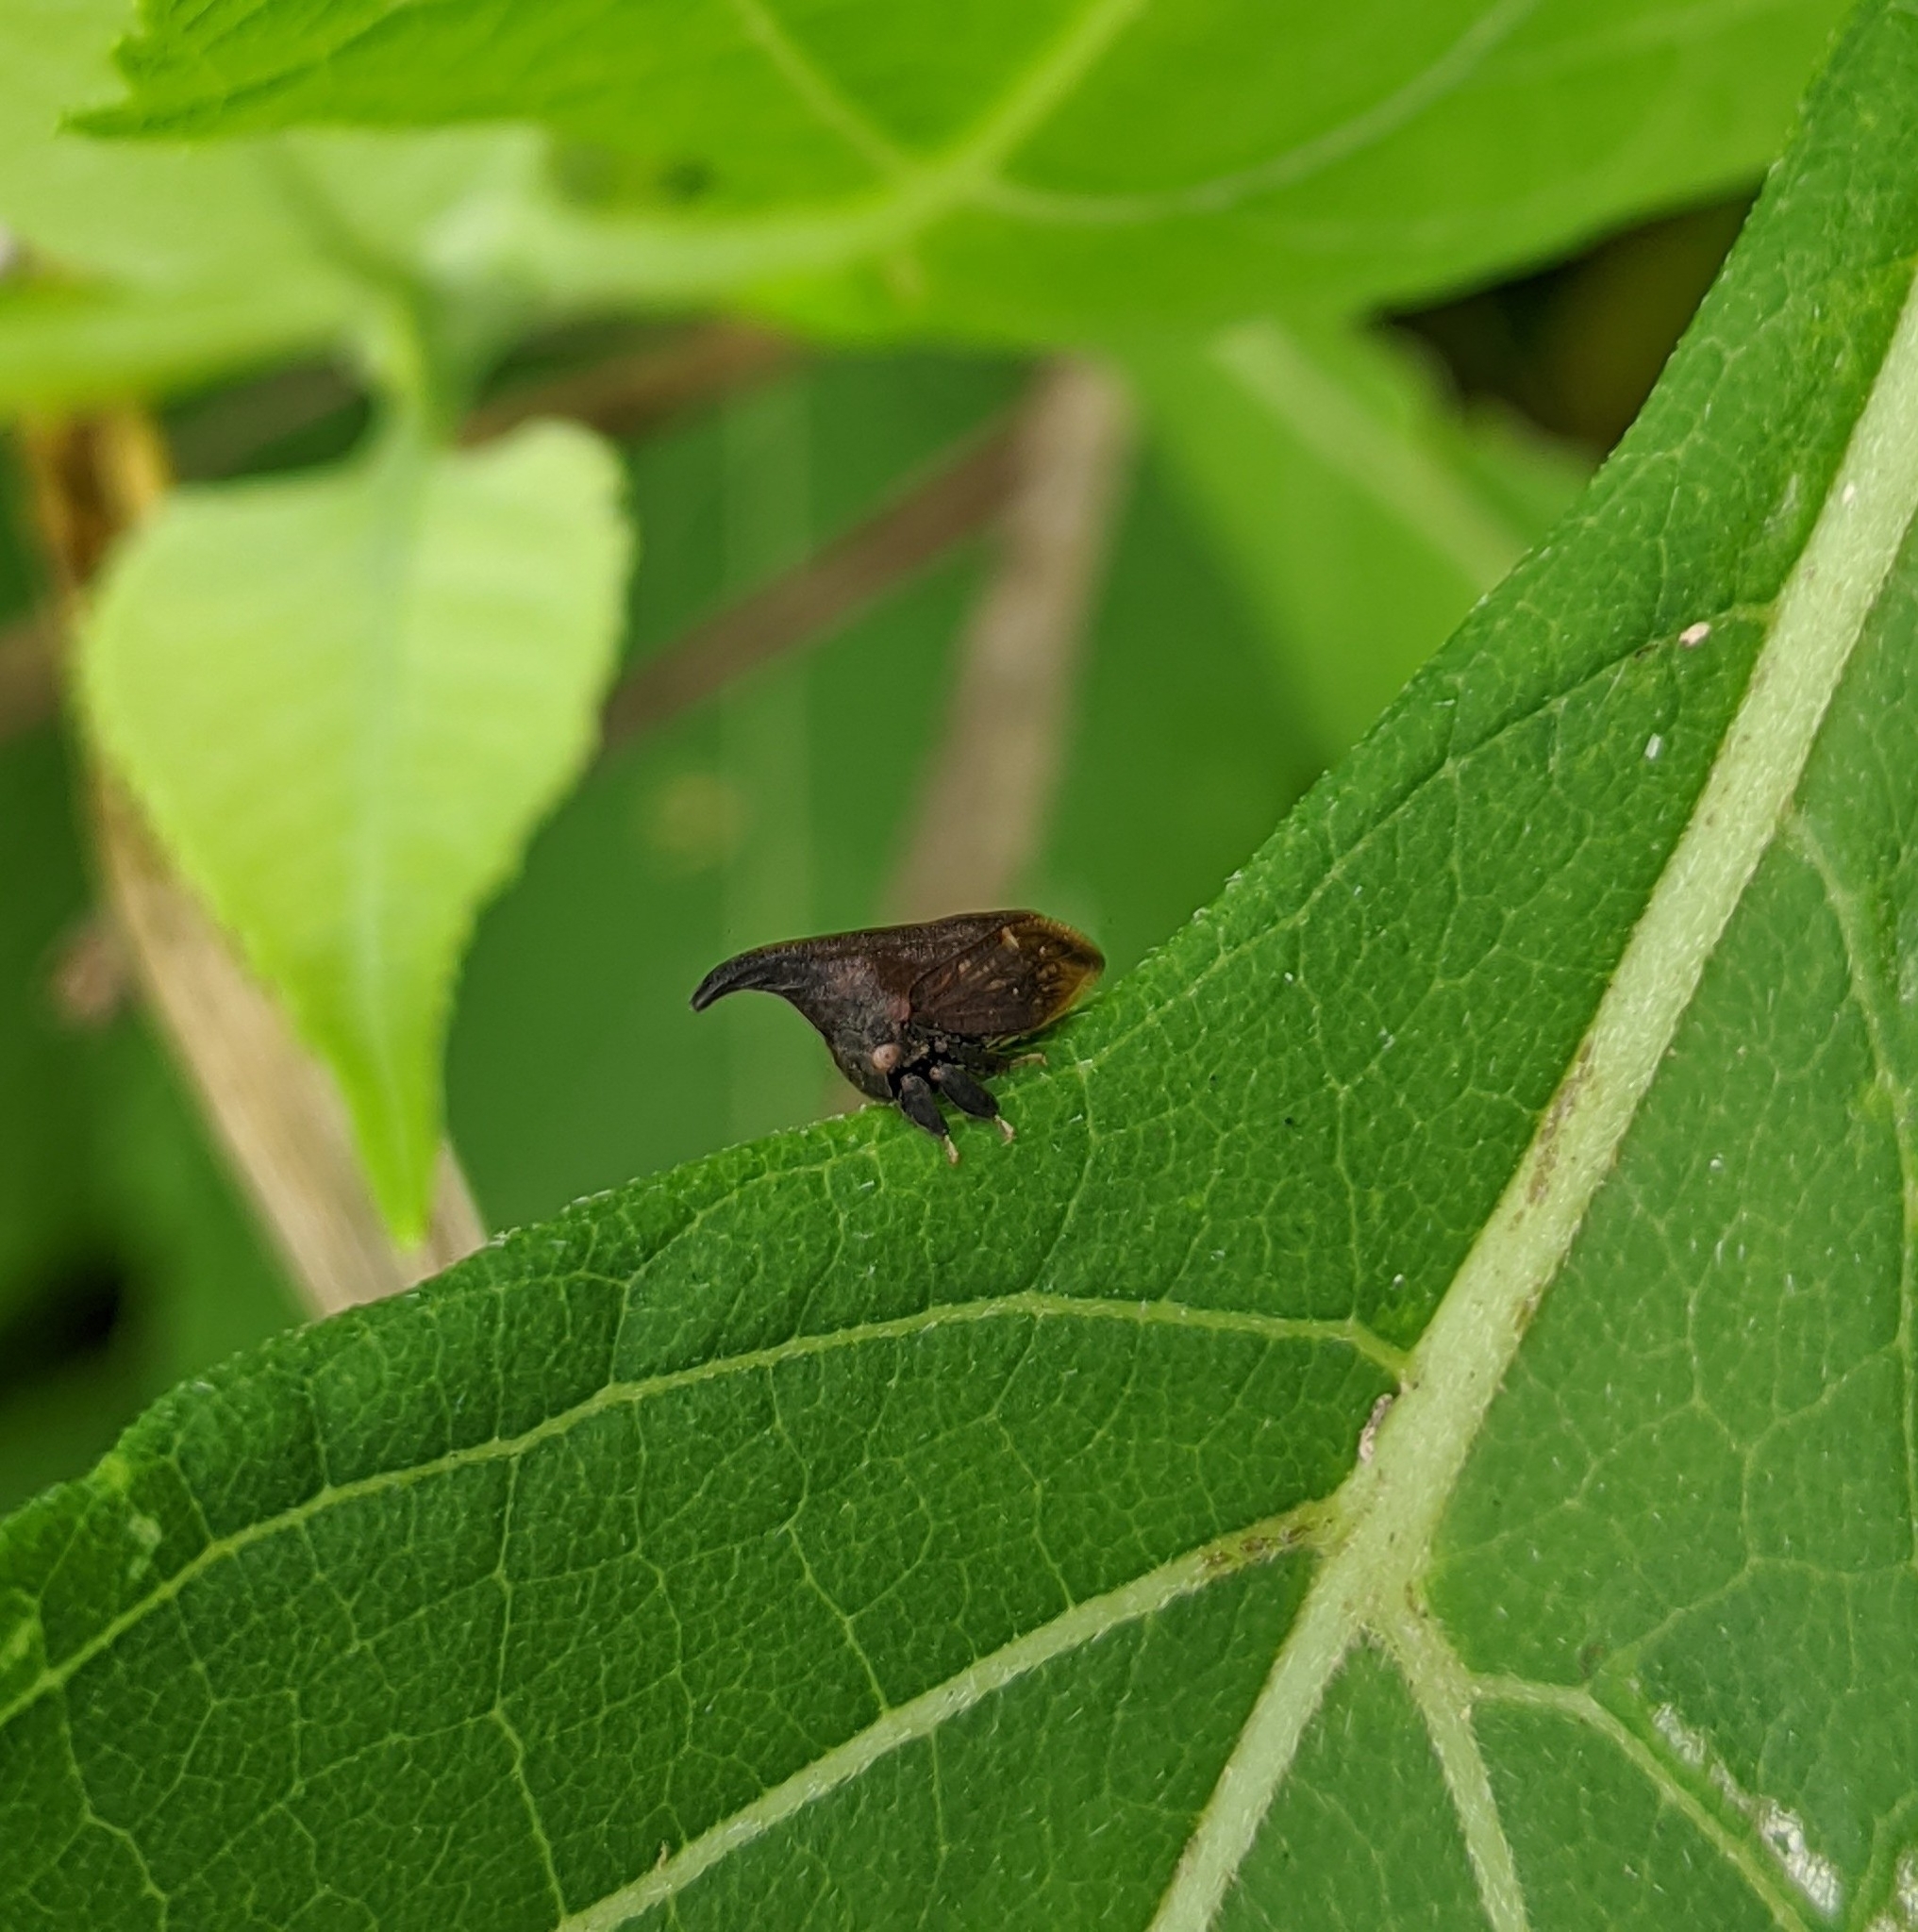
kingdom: Animalia
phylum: Arthropoda
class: Insecta
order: Hemiptera
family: Membracidae
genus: Enchenopa
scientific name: Enchenopa latipes
